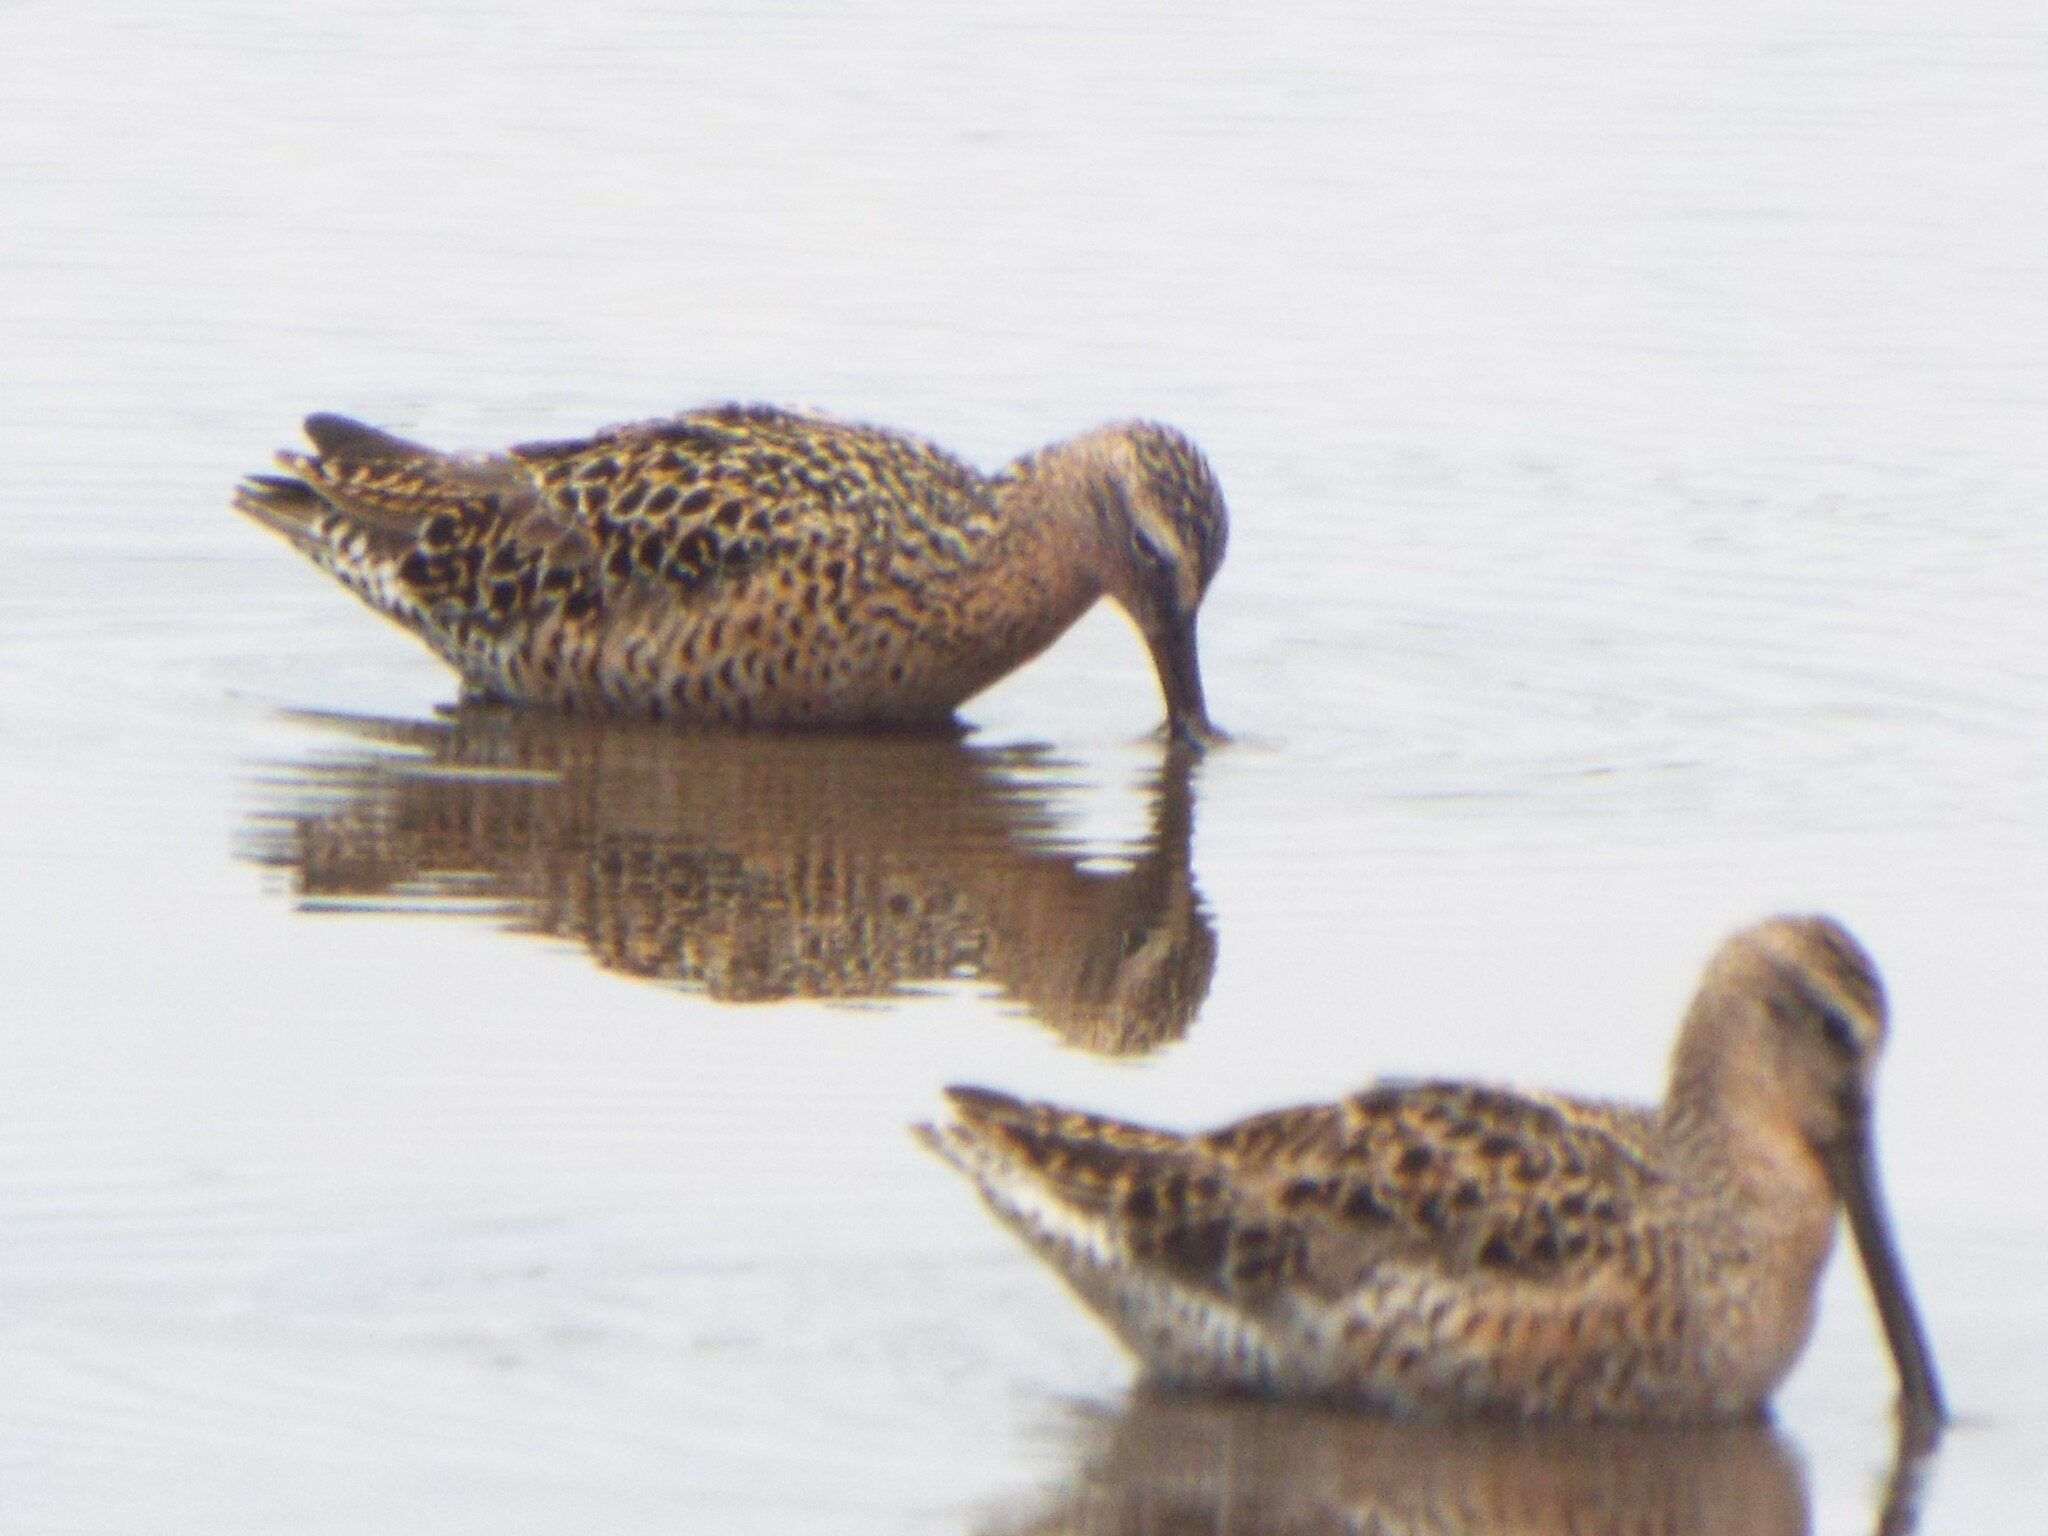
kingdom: Animalia
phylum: Chordata
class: Aves
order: Charadriiformes
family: Scolopacidae
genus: Limnodromus
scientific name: Limnodromus griseus
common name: Short-billed dowitcher
